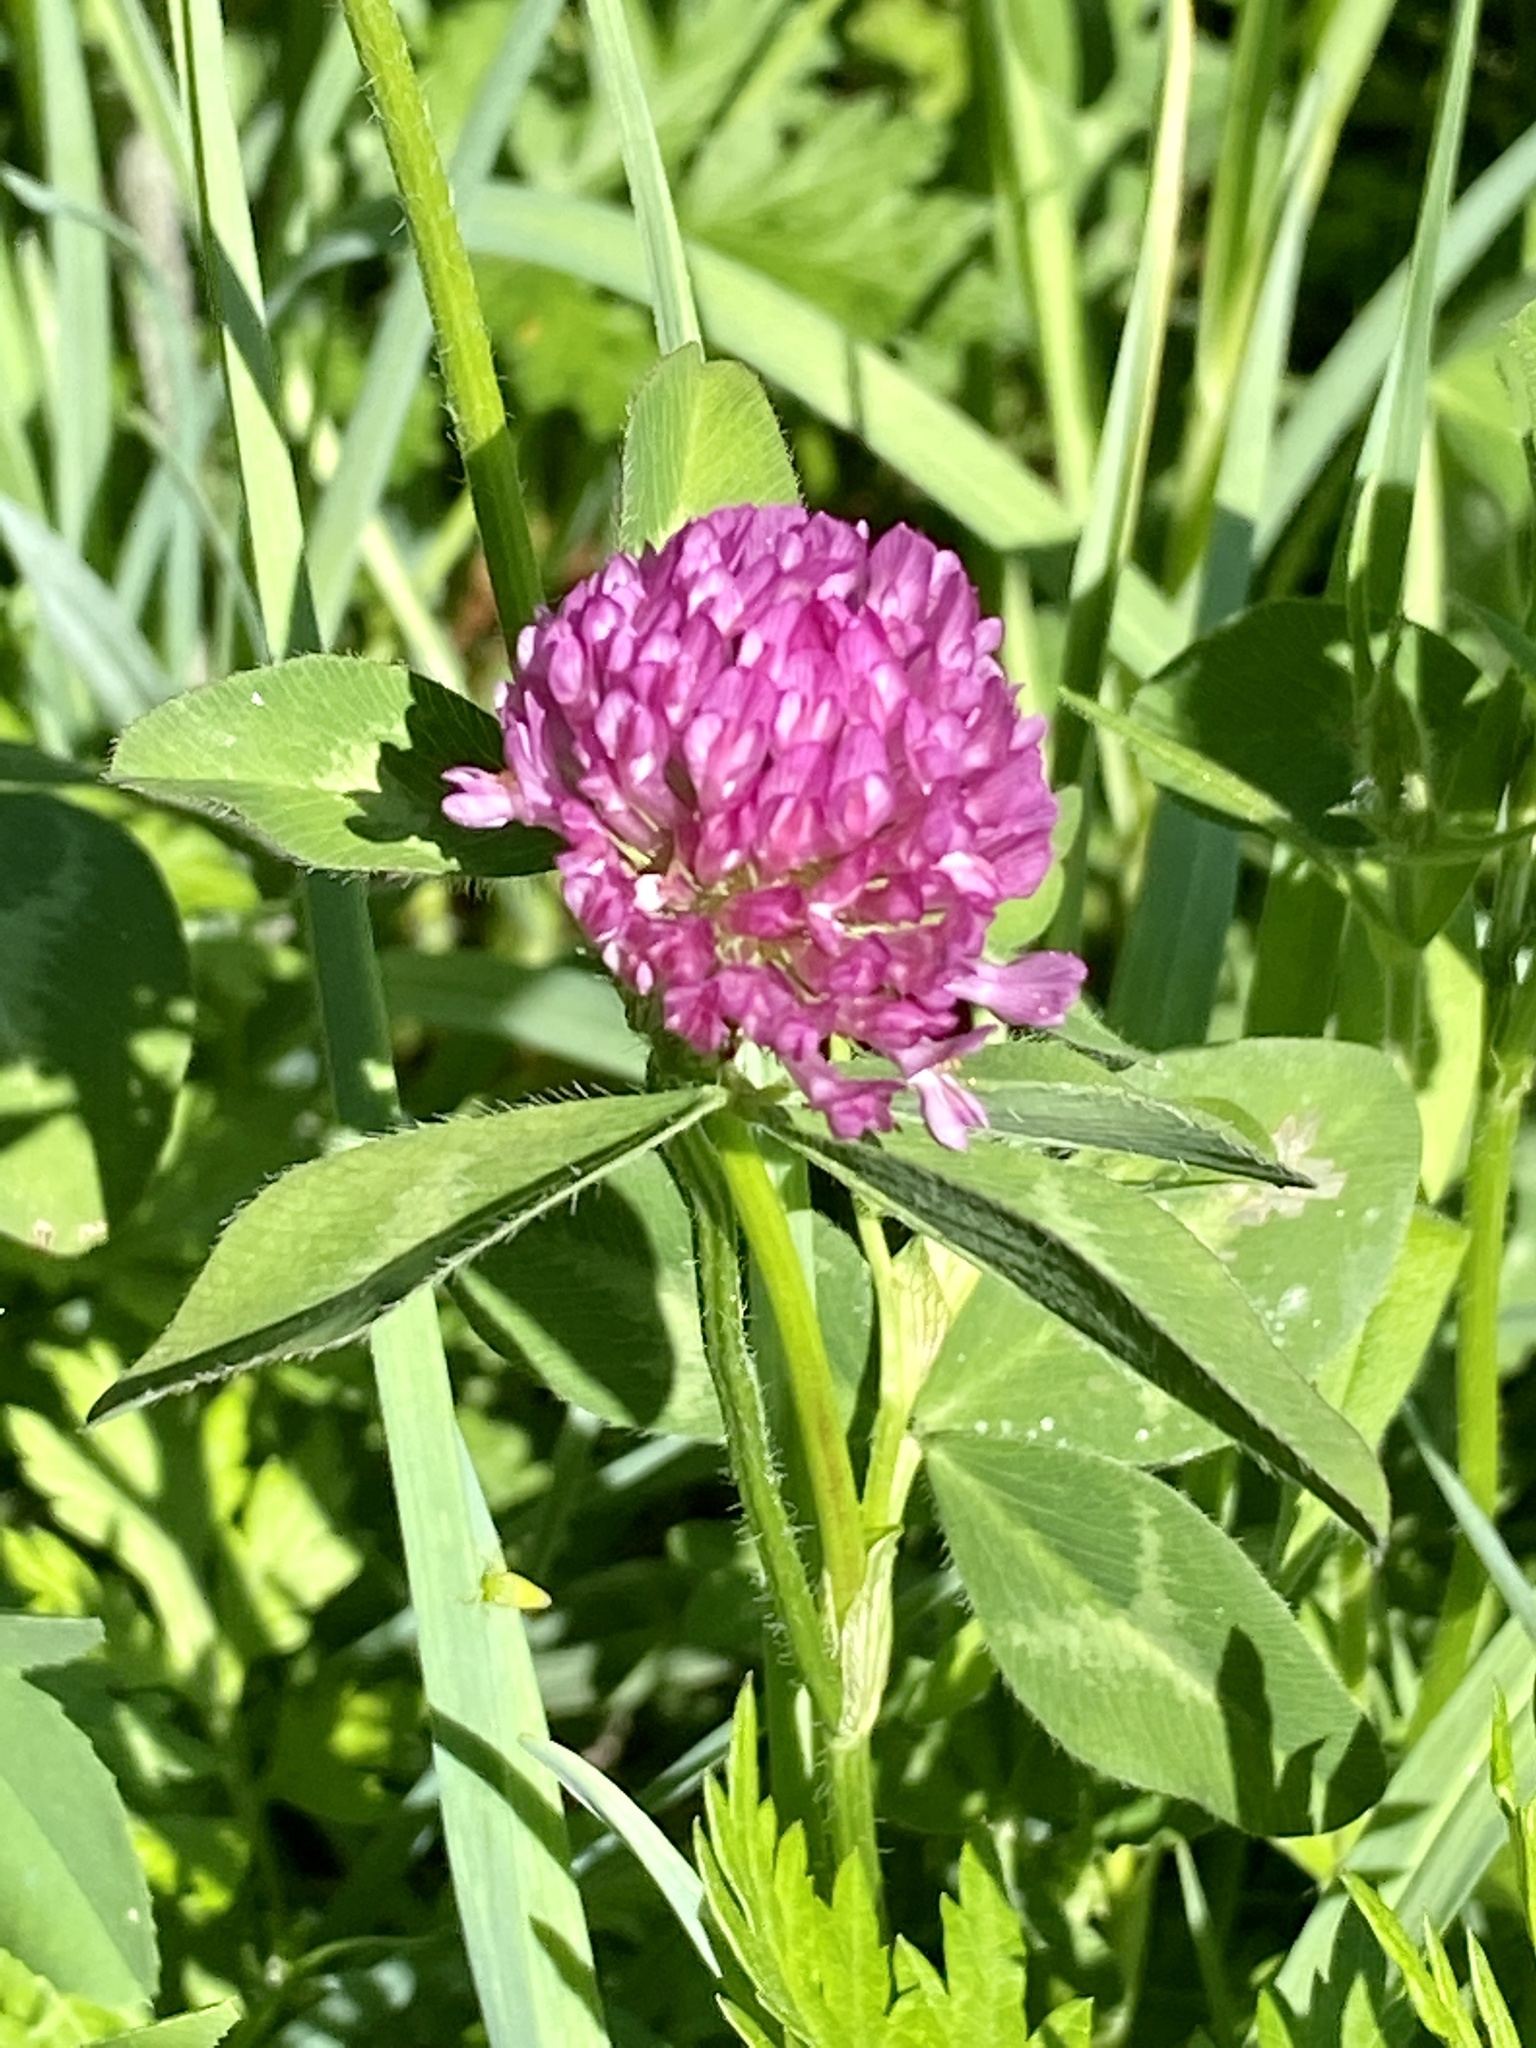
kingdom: Plantae
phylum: Tracheophyta
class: Magnoliopsida
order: Fabales
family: Fabaceae
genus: Trifolium
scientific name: Trifolium pratense
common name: Red clover
